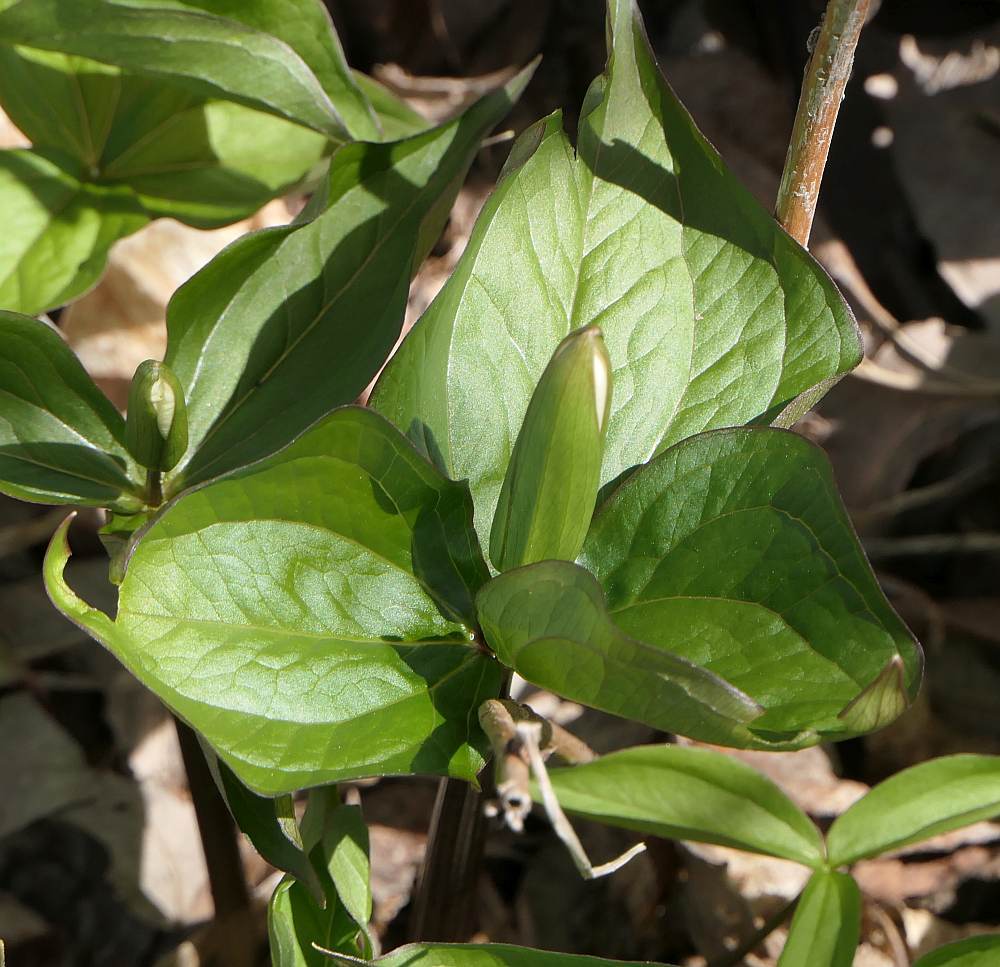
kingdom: Plantae
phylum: Tracheophyta
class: Liliopsida
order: Liliales
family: Melanthiaceae
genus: Trillium
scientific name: Trillium grandiflorum
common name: Great white trillium
